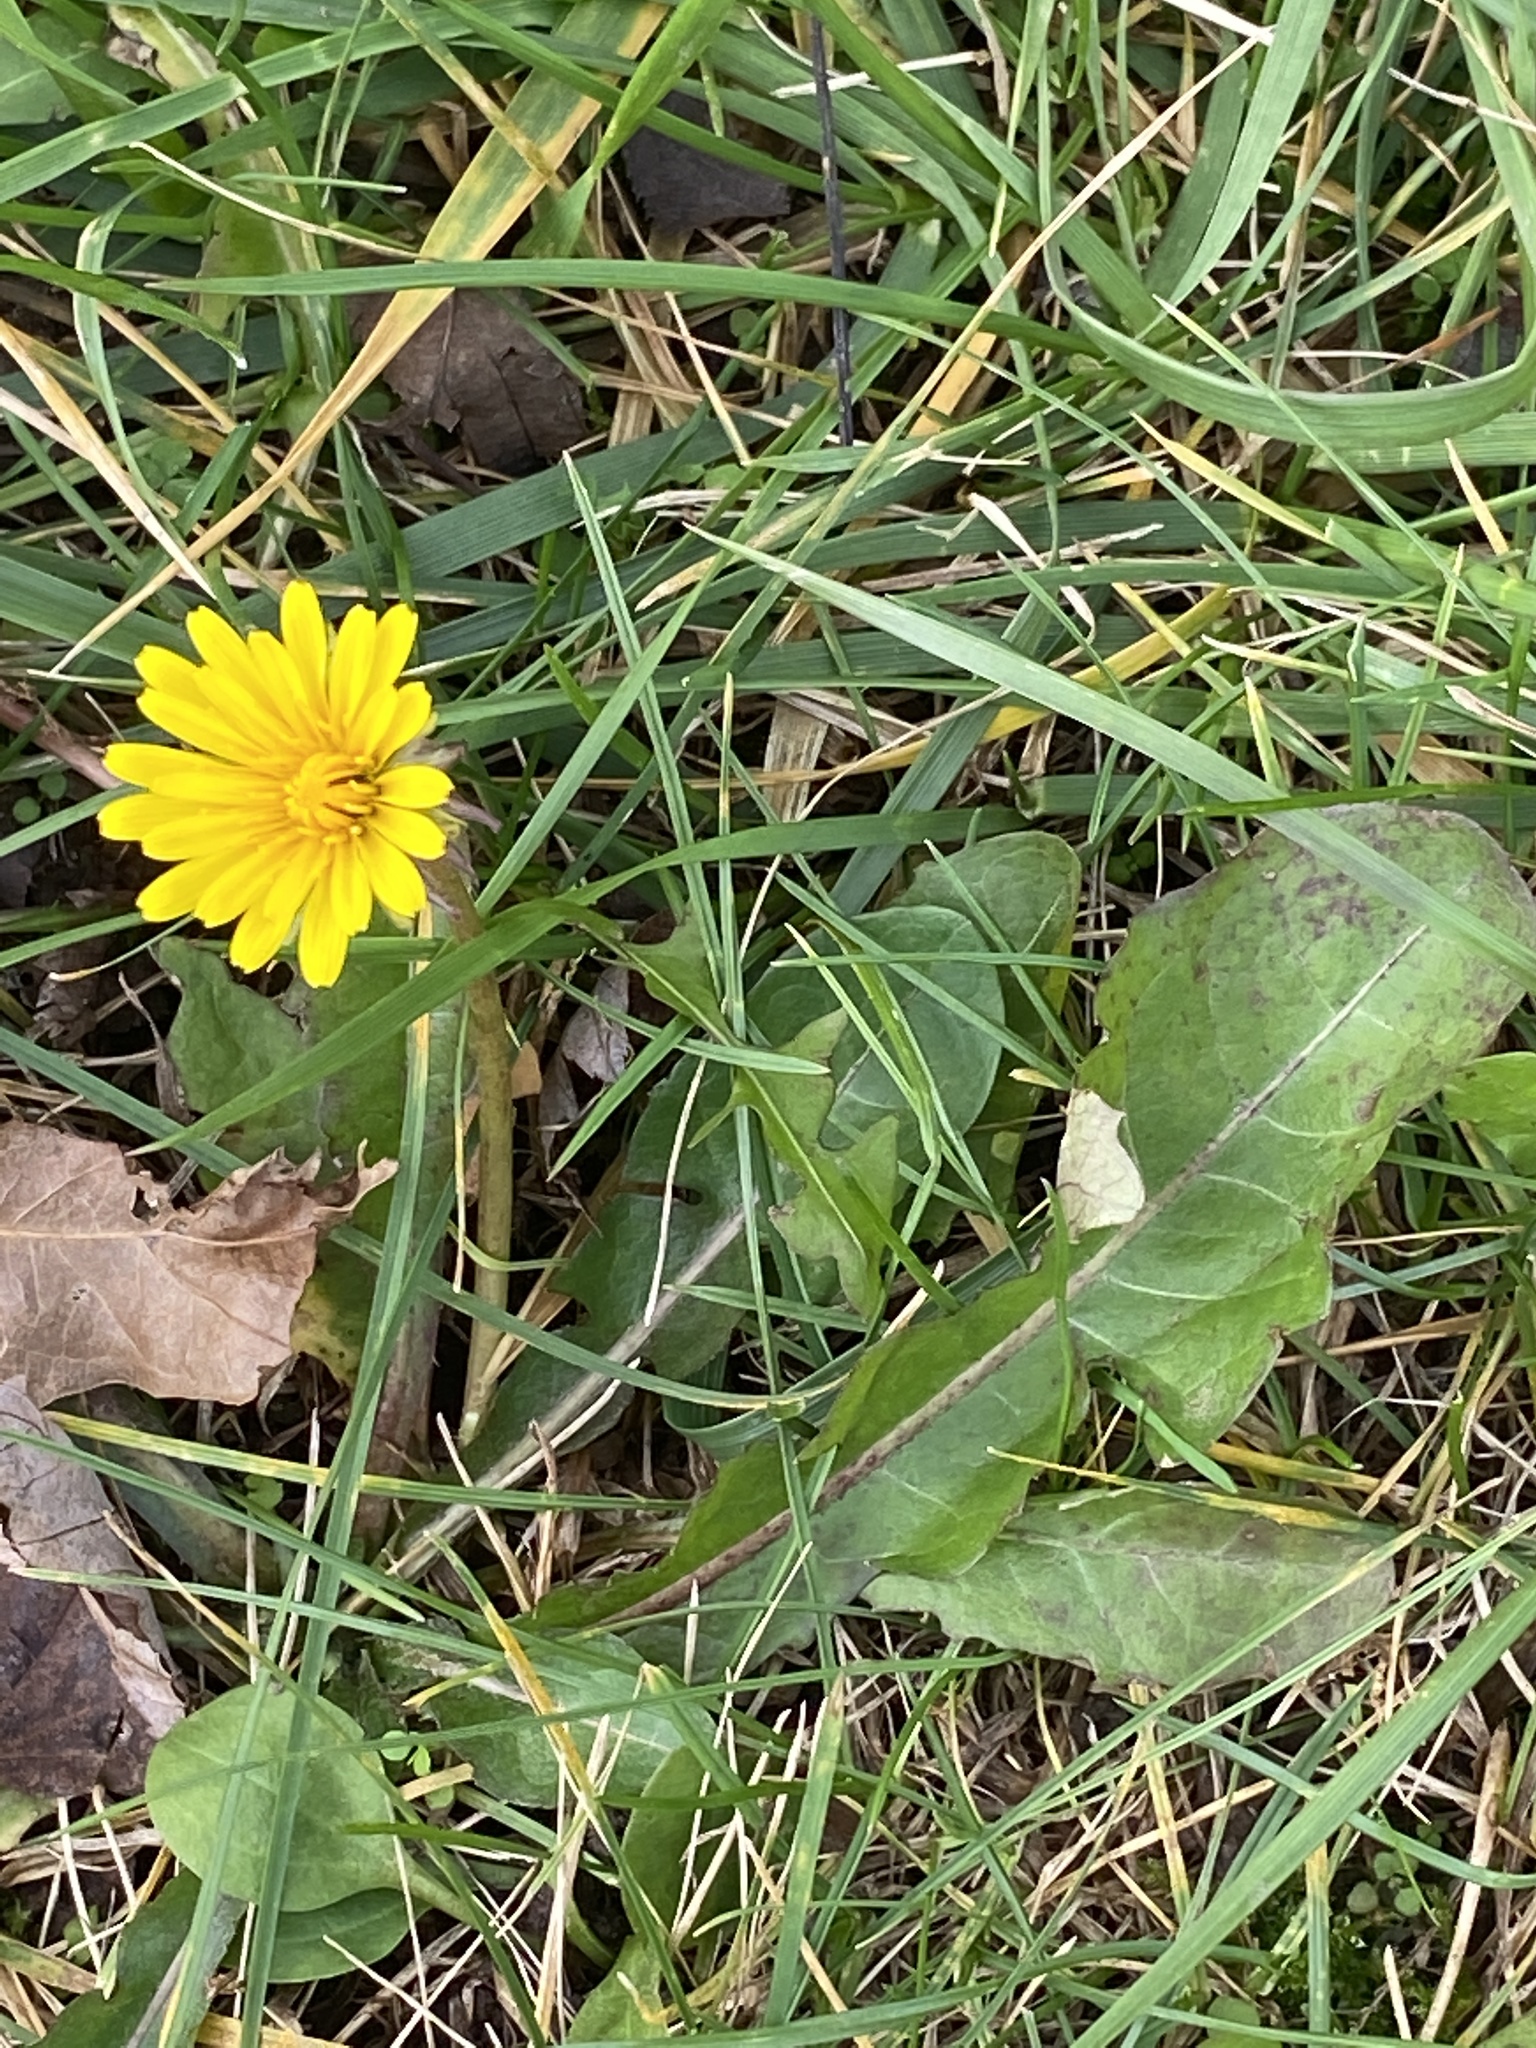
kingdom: Plantae
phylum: Tracheophyta
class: Magnoliopsida
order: Asterales
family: Asteraceae
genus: Taraxacum
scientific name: Taraxacum officinale
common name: Common dandelion
